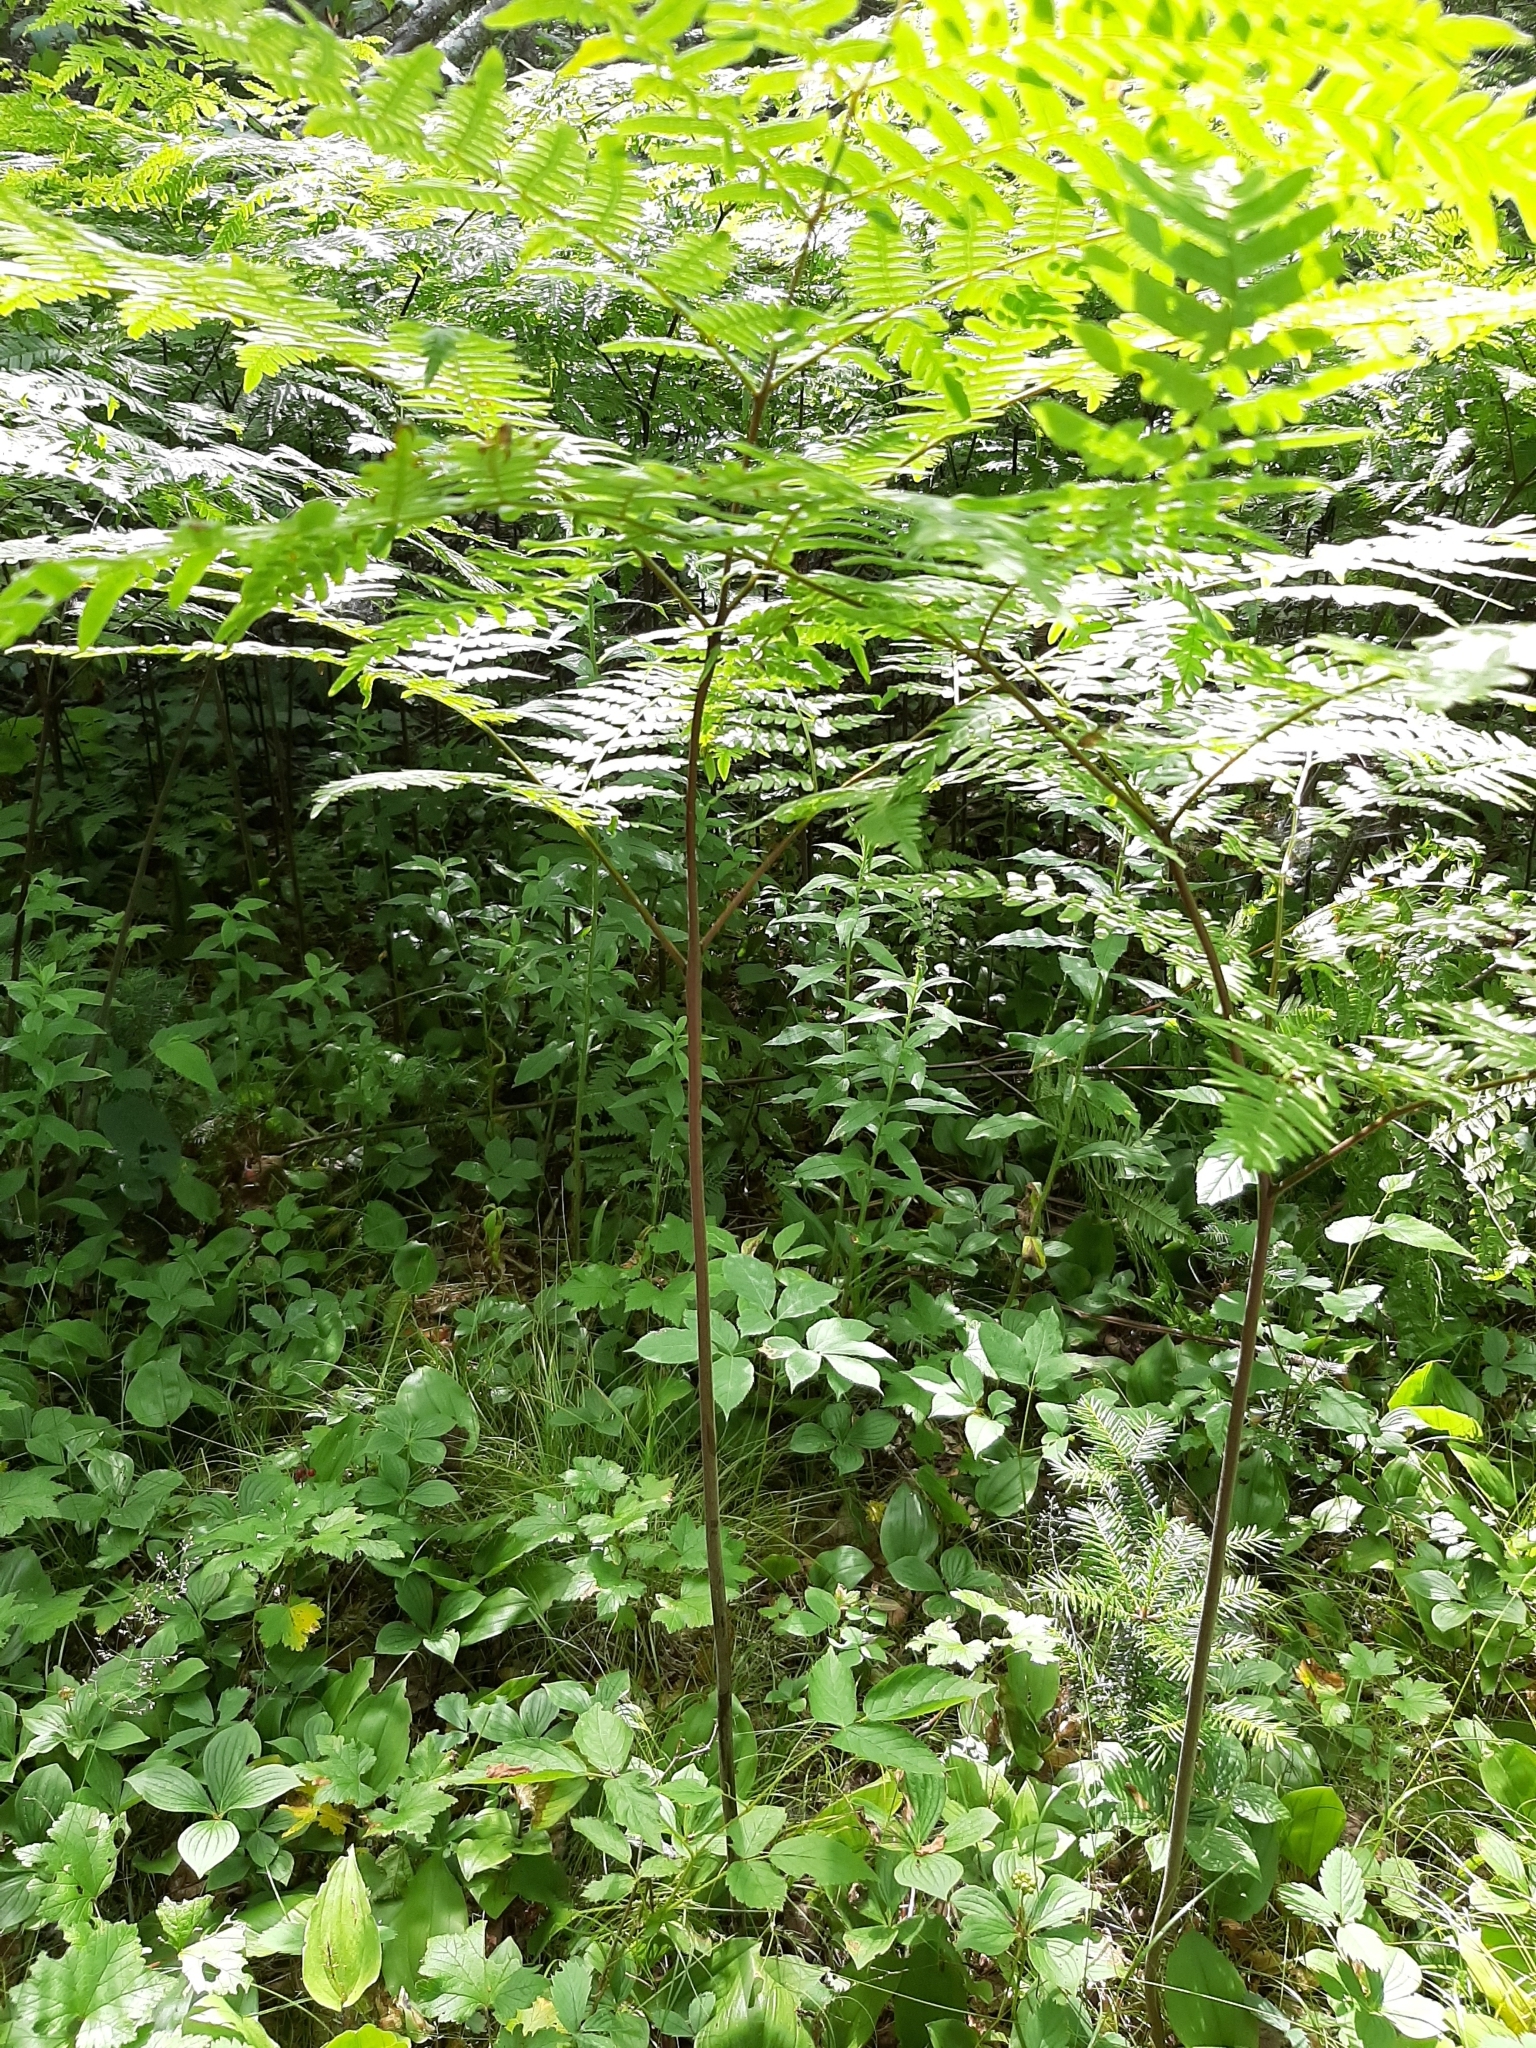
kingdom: Plantae
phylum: Tracheophyta
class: Polypodiopsida
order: Polypodiales
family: Dennstaedtiaceae
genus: Pteridium
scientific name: Pteridium aquilinum
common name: Bracken
